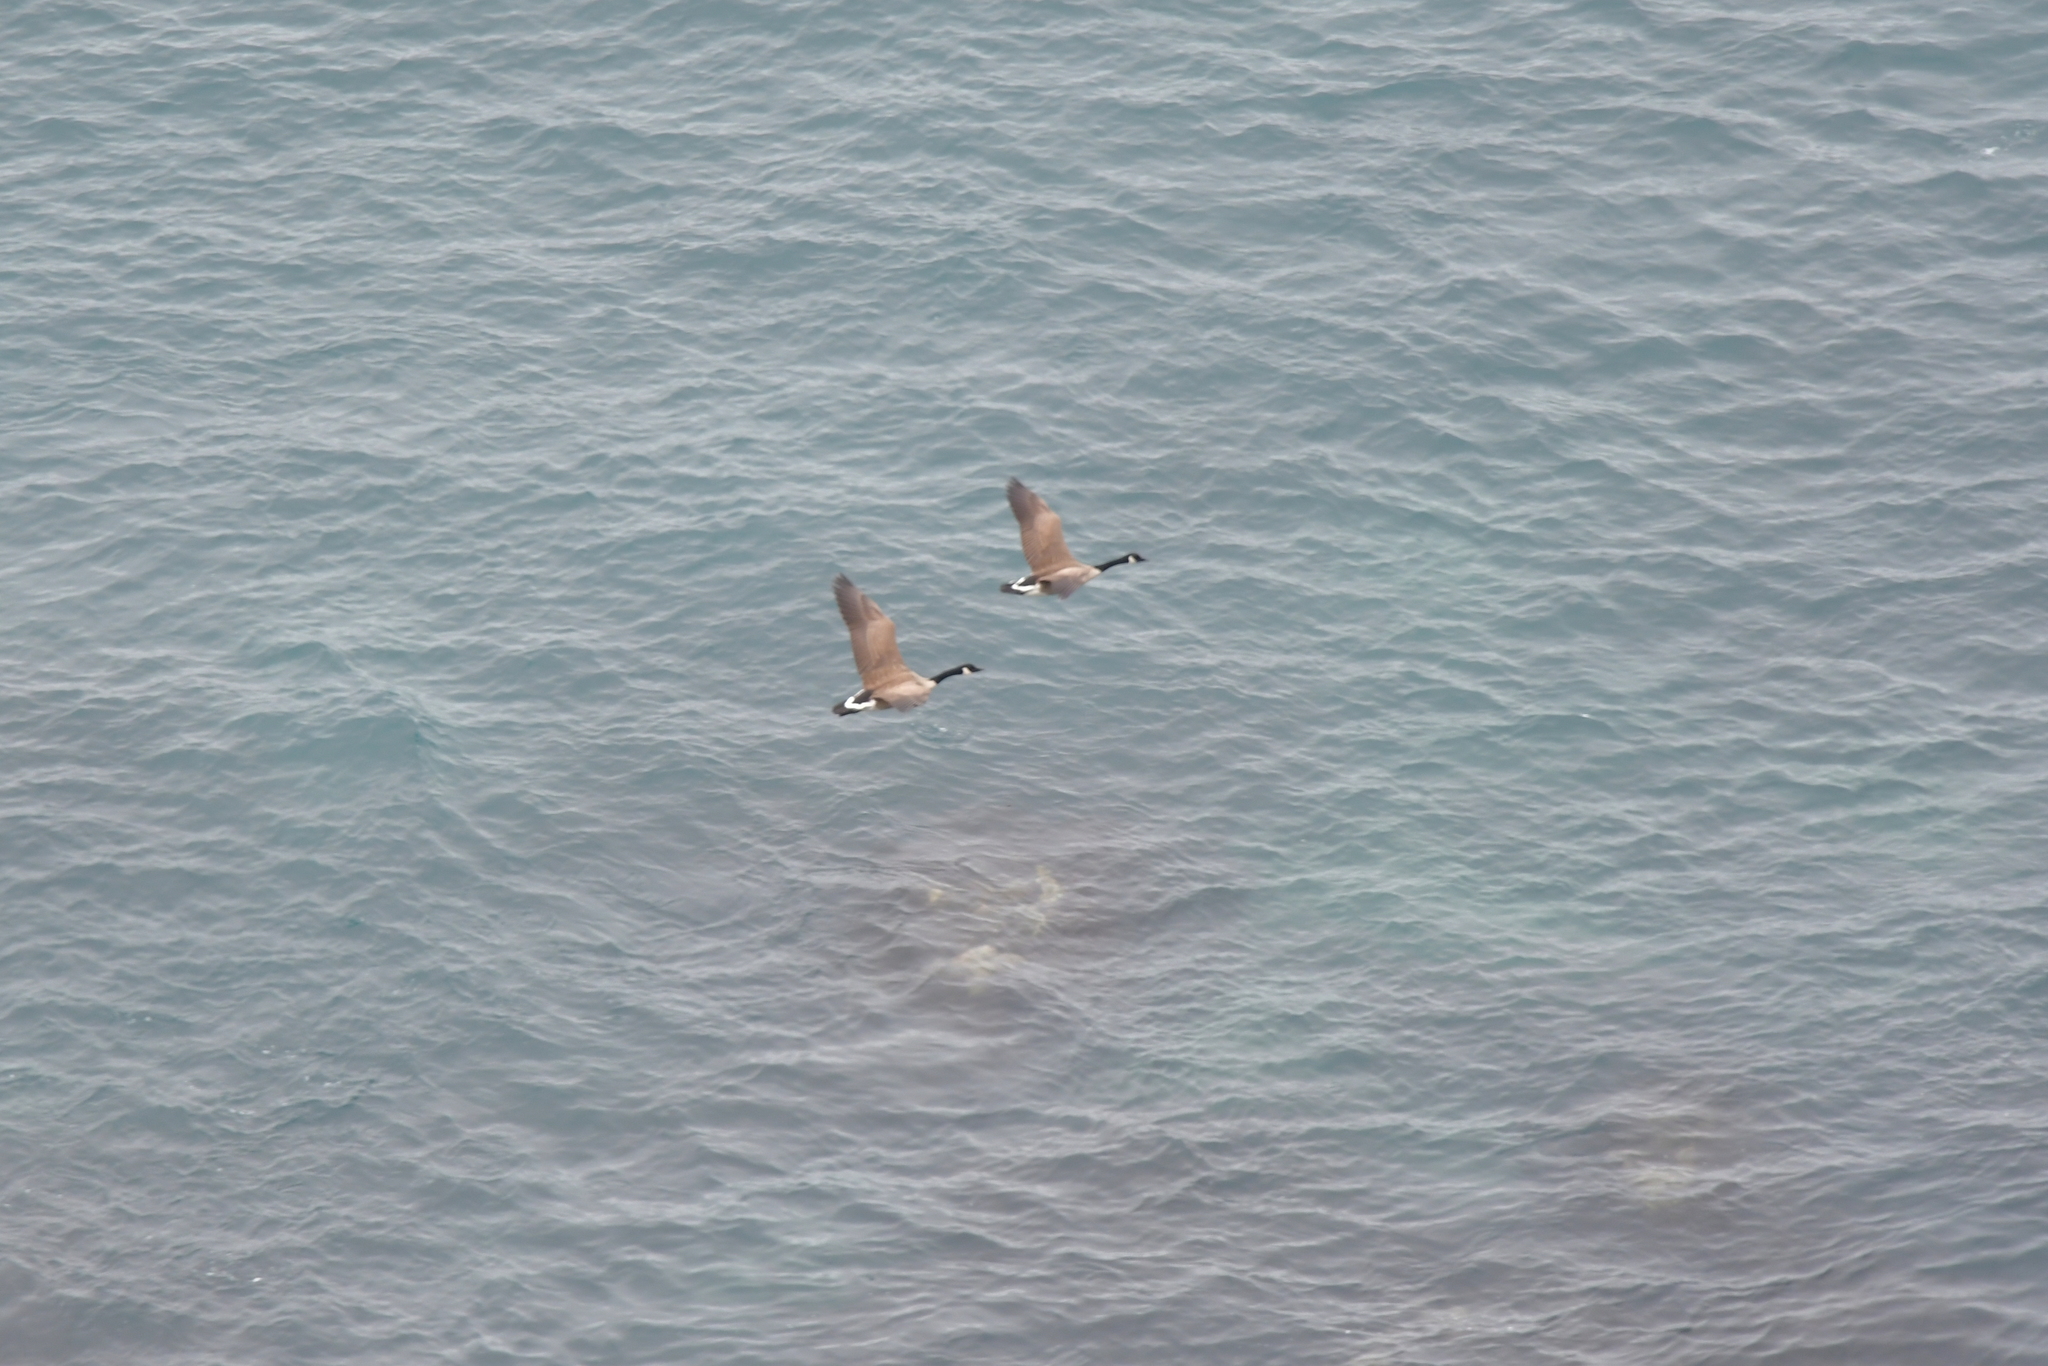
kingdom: Animalia
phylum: Chordata
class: Aves
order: Anseriformes
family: Anatidae
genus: Branta
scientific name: Branta canadensis
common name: Canada goose
